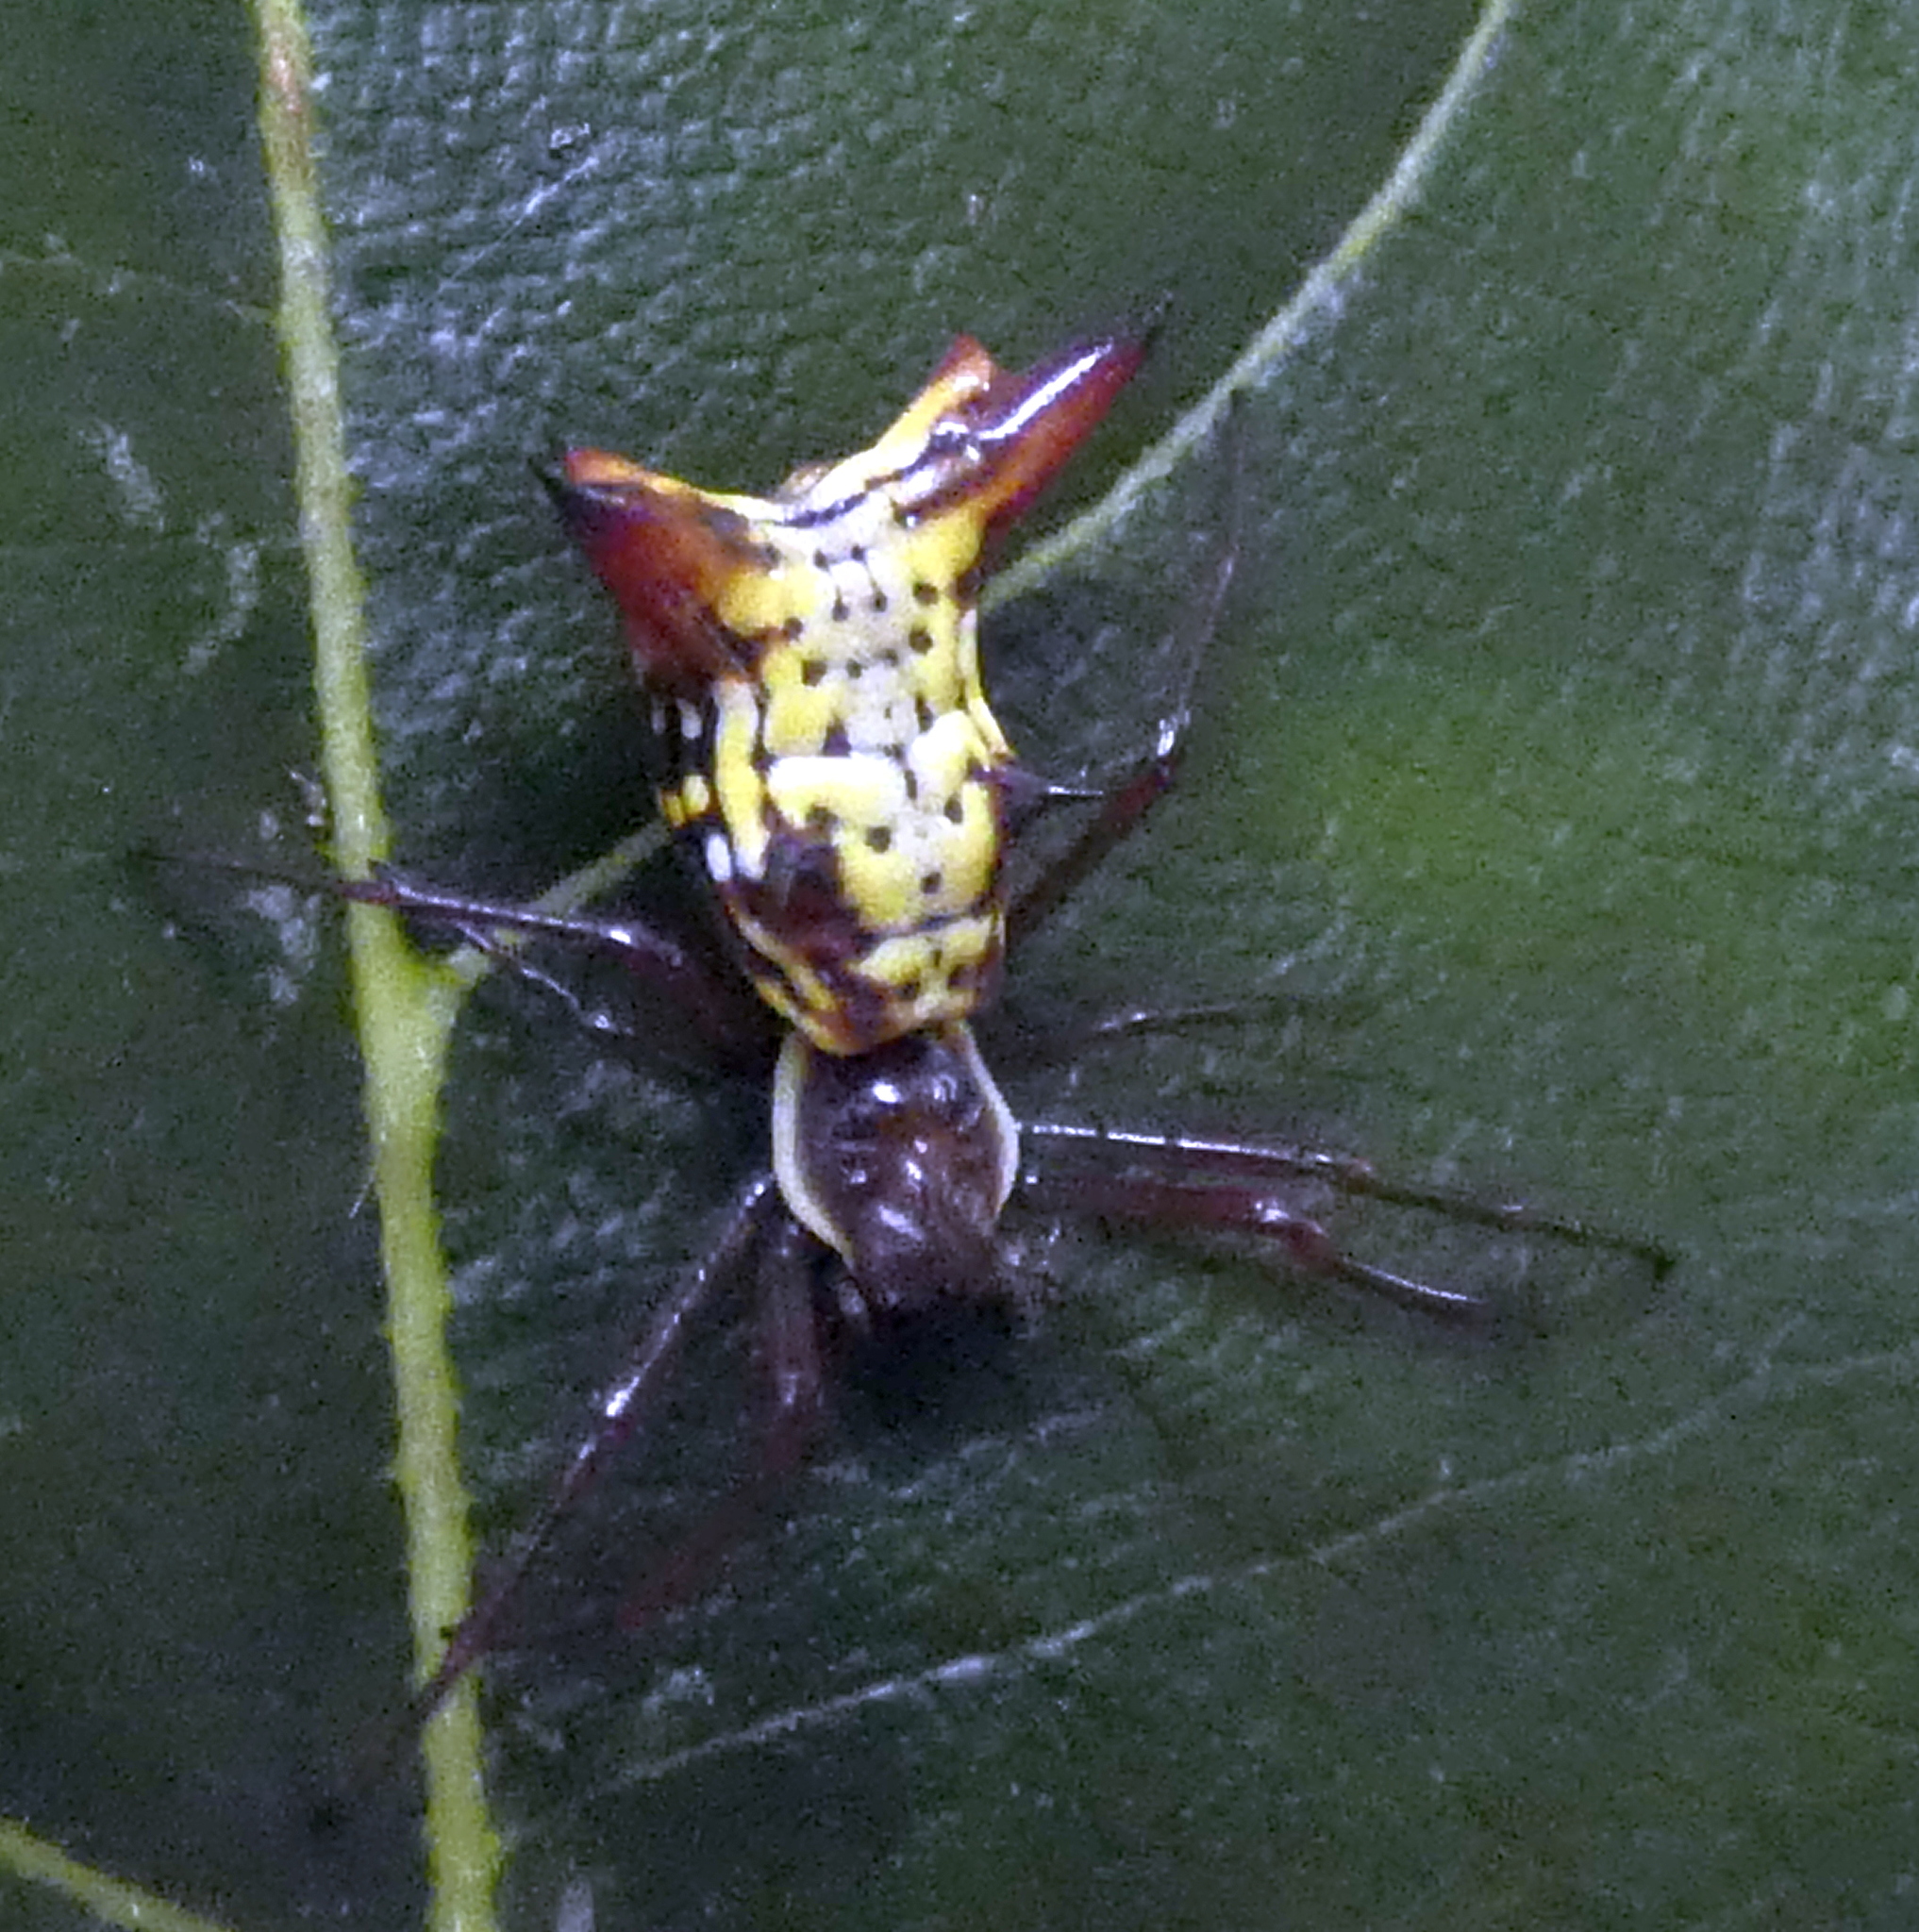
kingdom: Animalia
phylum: Arthropoda
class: Arachnida
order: Araneae
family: Araneidae
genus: Micrathena
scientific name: Micrathena fissispina
